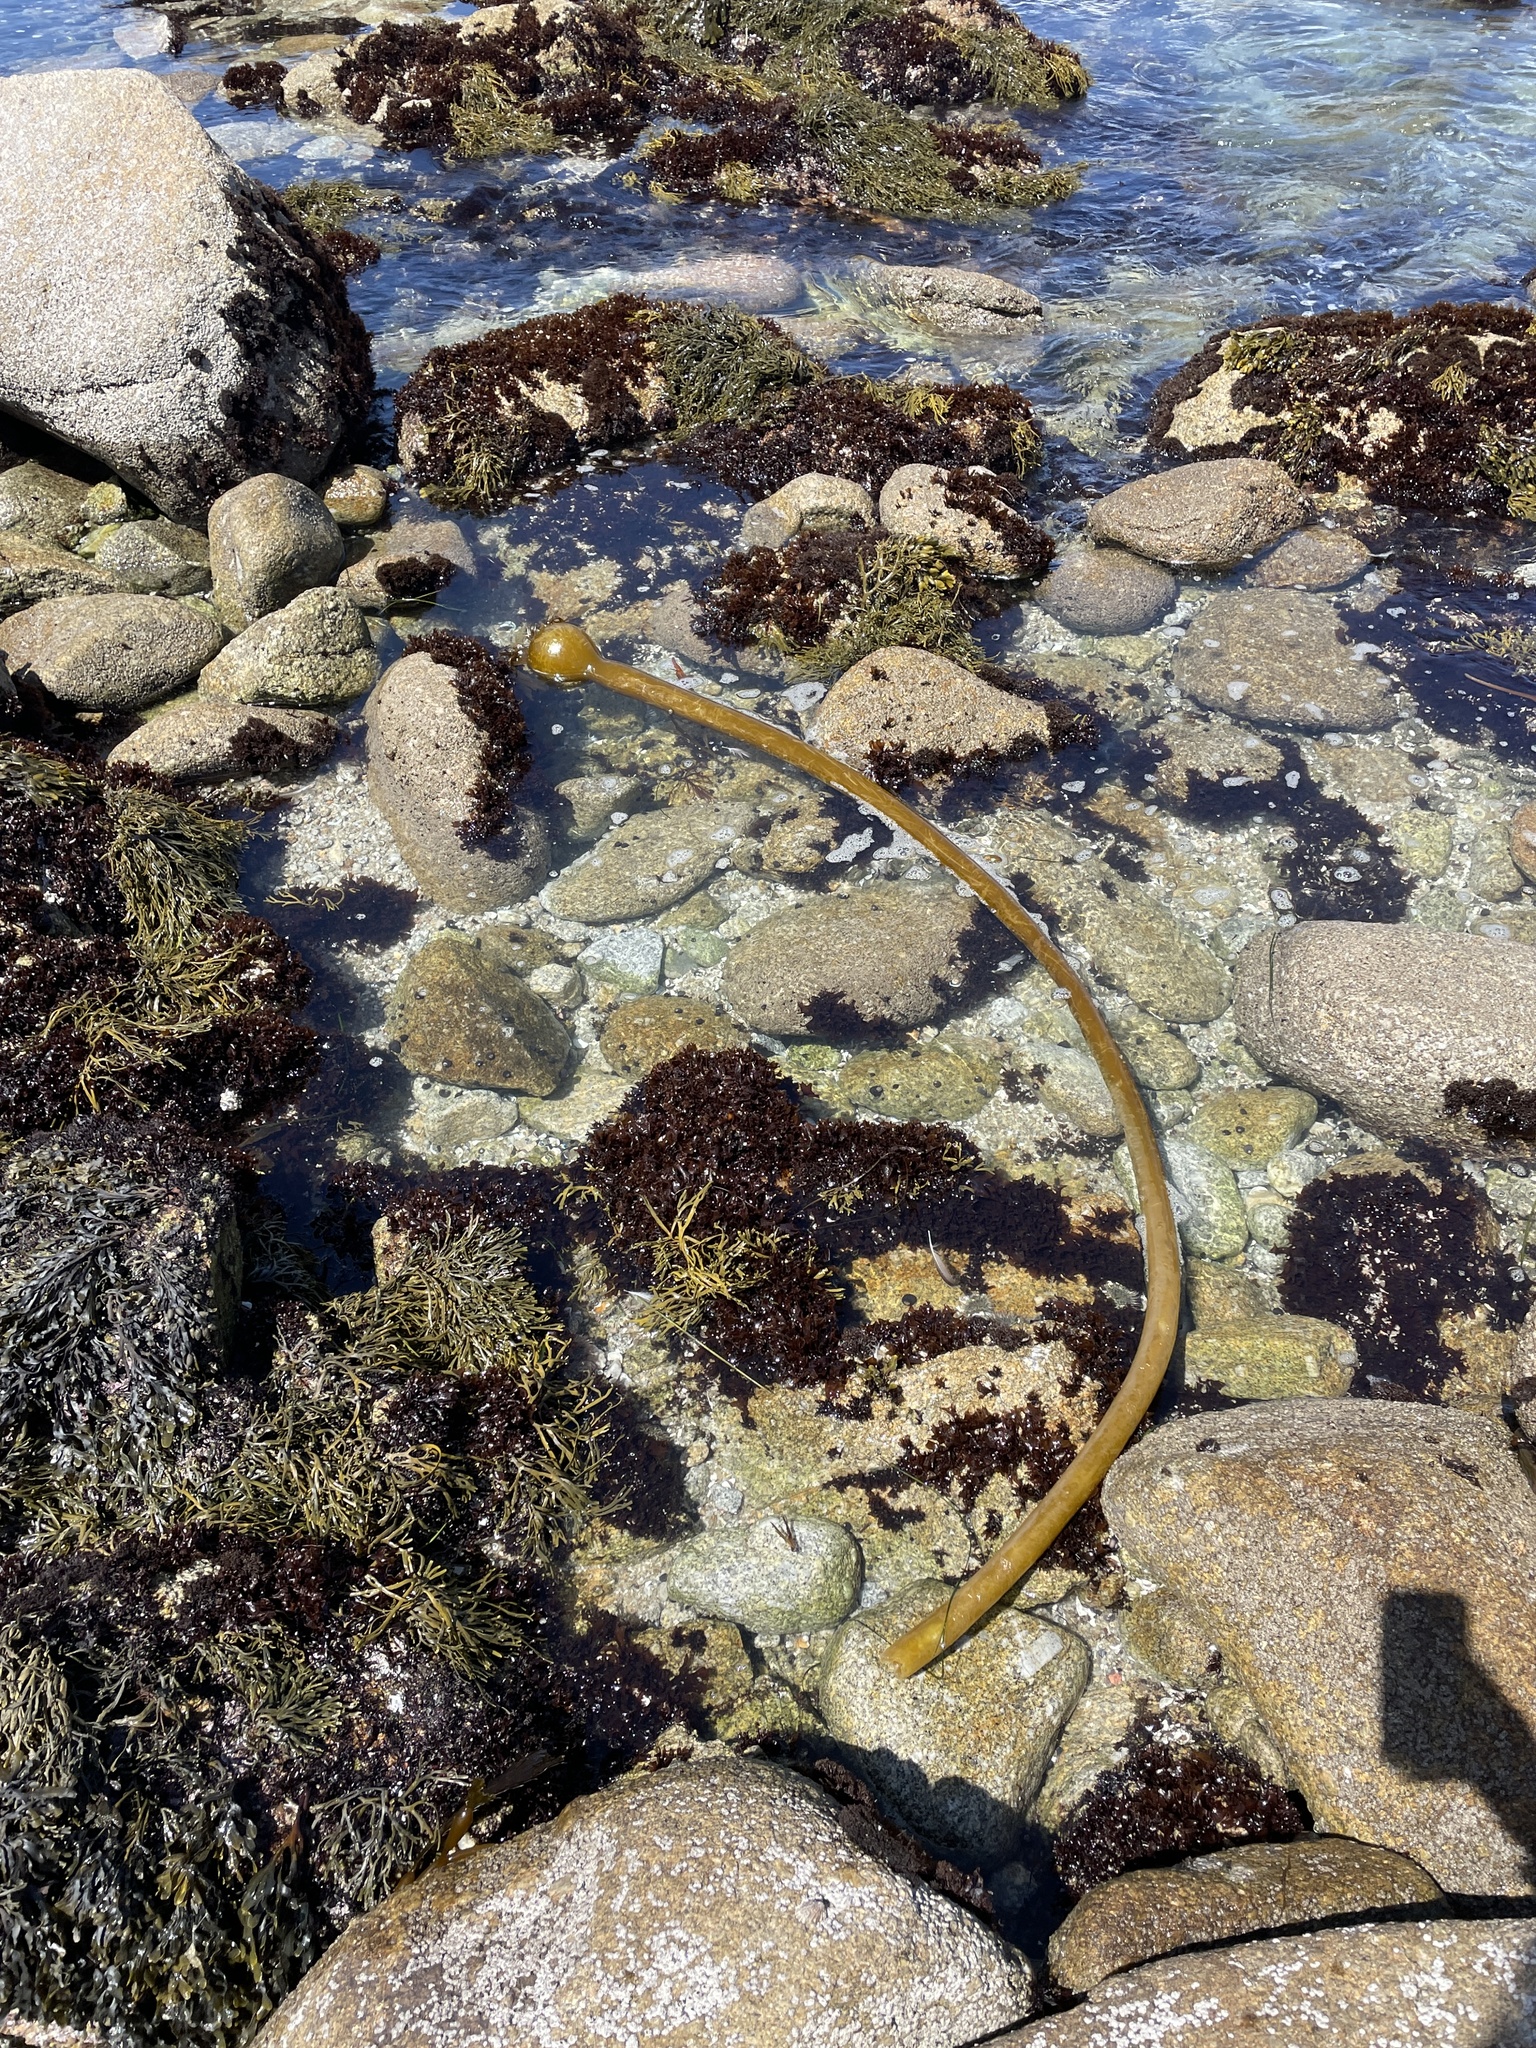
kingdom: Chromista
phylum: Ochrophyta
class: Phaeophyceae
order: Laminariales
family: Laminariaceae
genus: Nereocystis
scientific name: Nereocystis luetkeana
